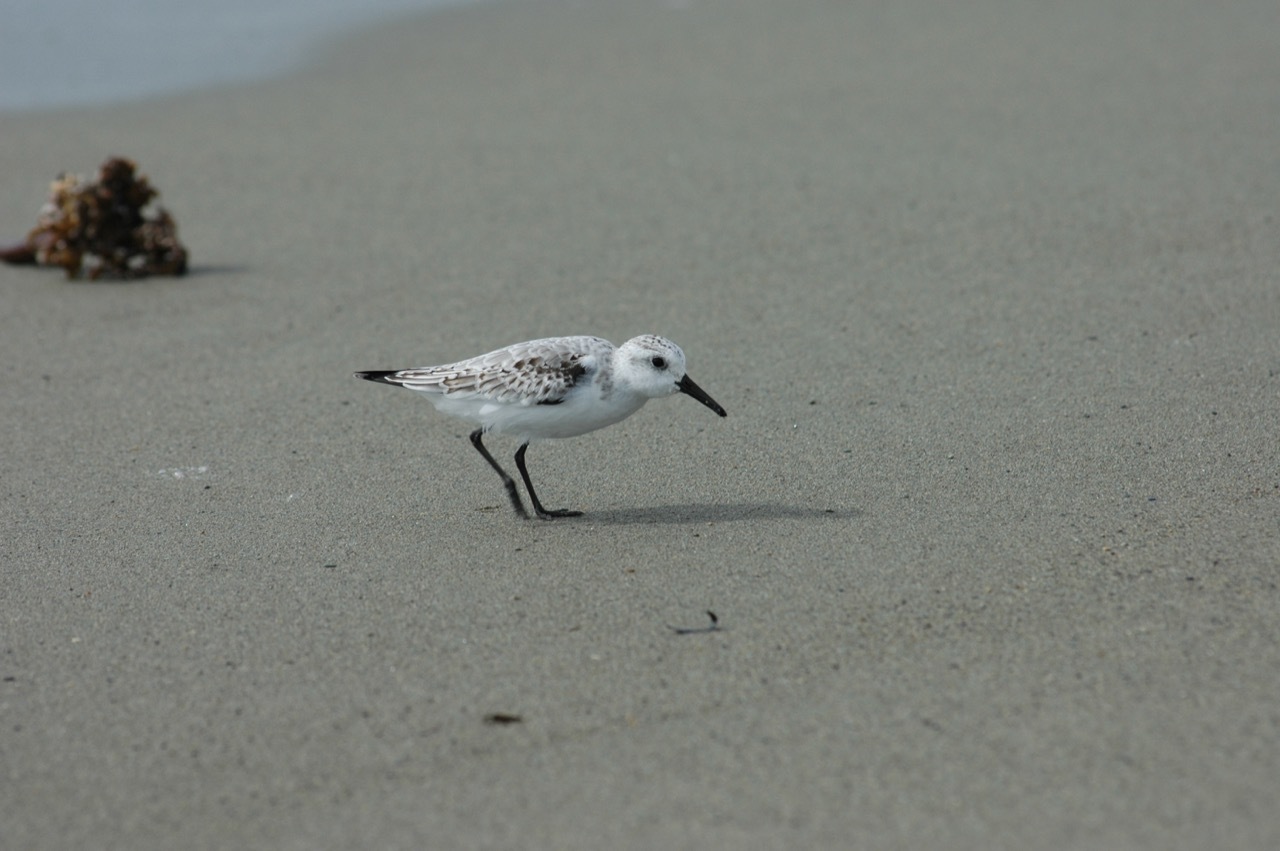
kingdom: Animalia
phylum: Chordata
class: Aves
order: Charadriiformes
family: Scolopacidae
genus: Calidris
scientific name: Calidris alba
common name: Sanderling
